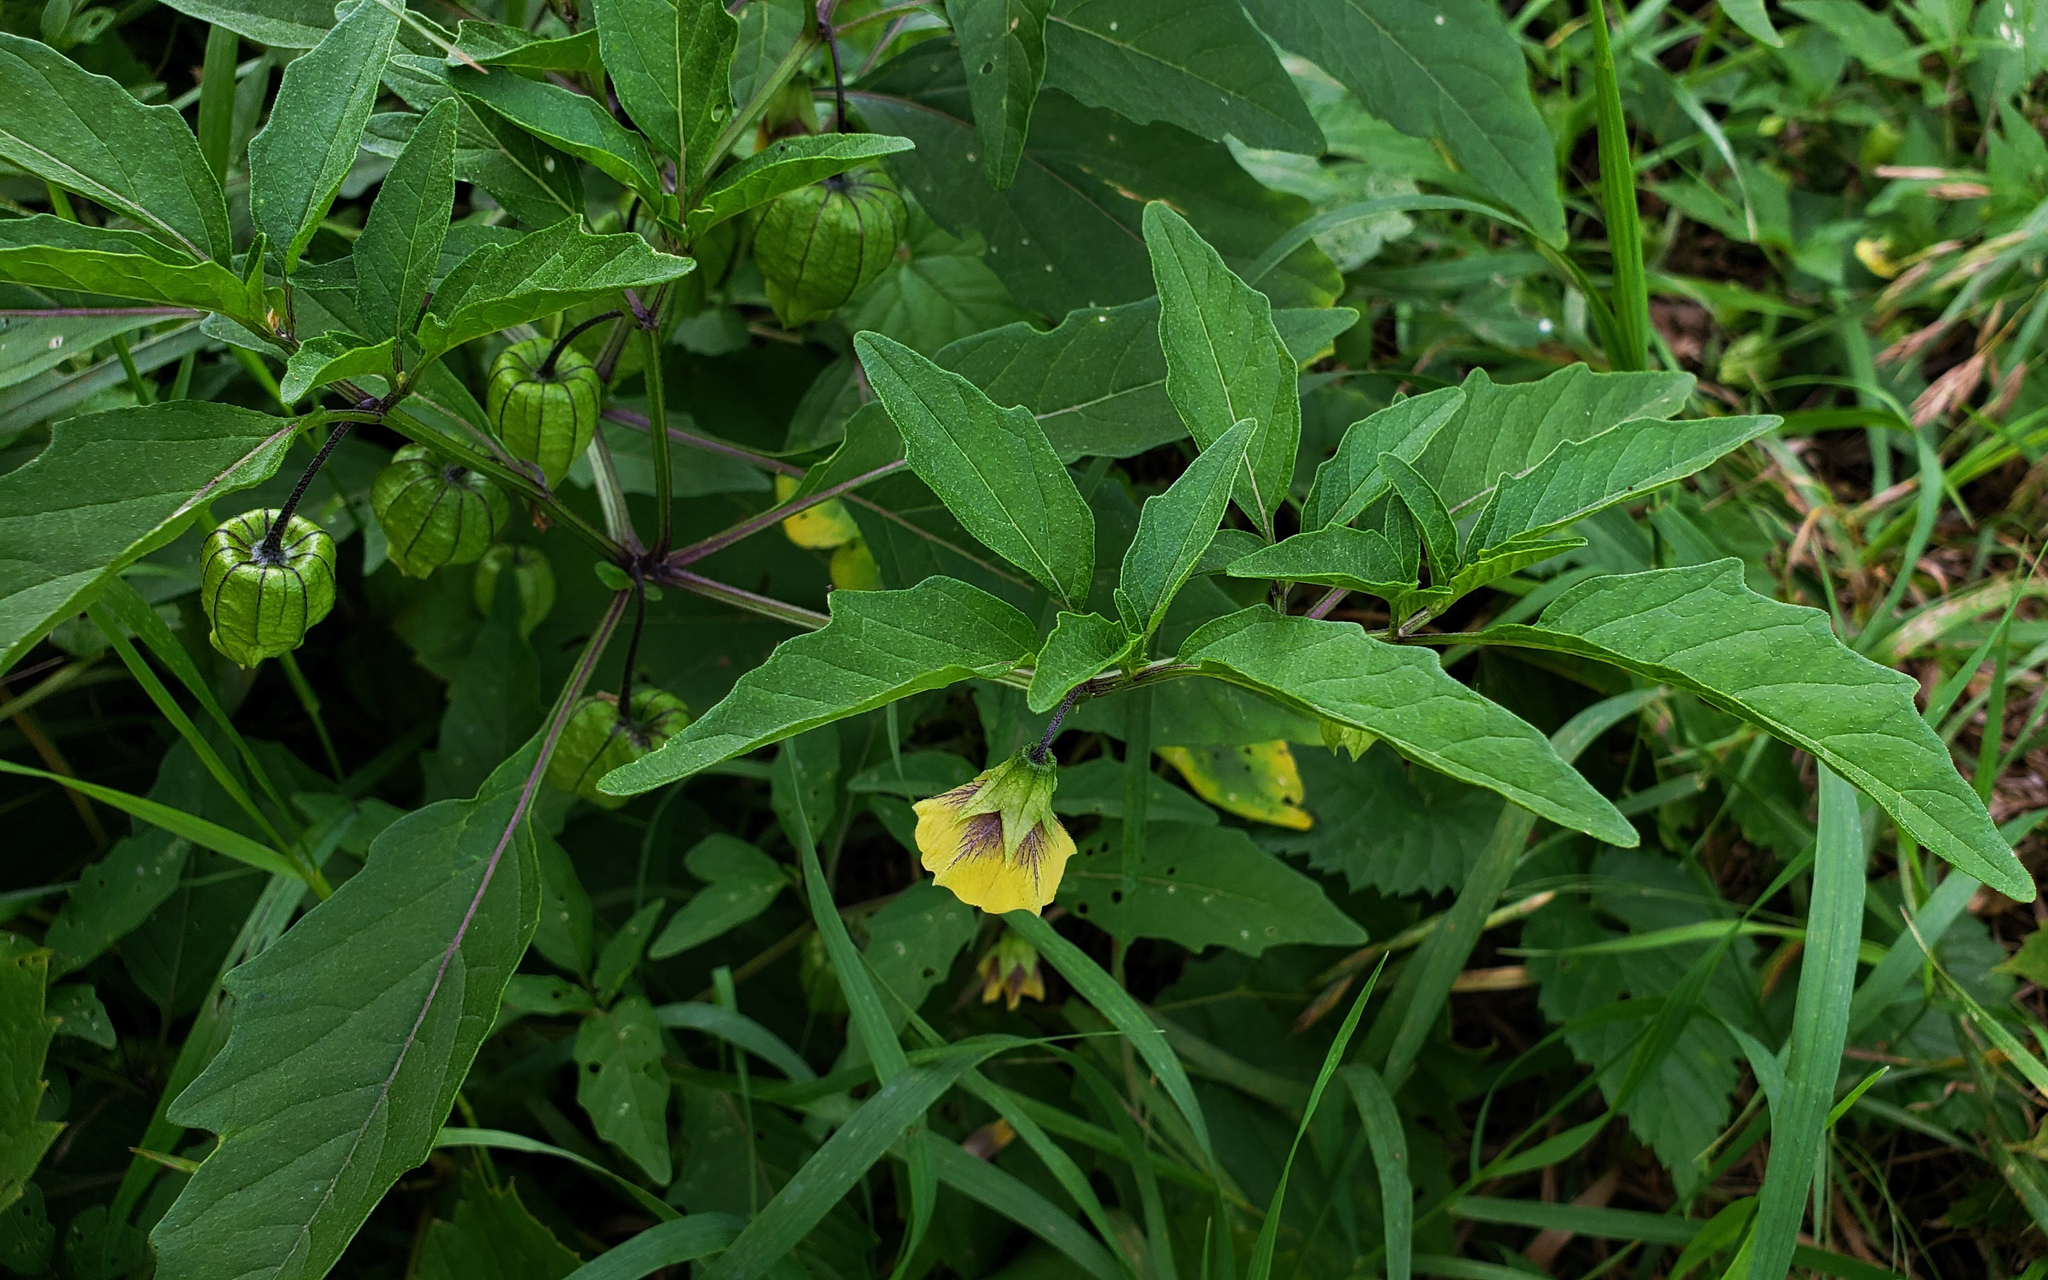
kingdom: Plantae
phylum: Tracheophyta
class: Magnoliopsida
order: Solanales
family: Solanaceae
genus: Physalis
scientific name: Physalis longifolia
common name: Common ground-cherry
